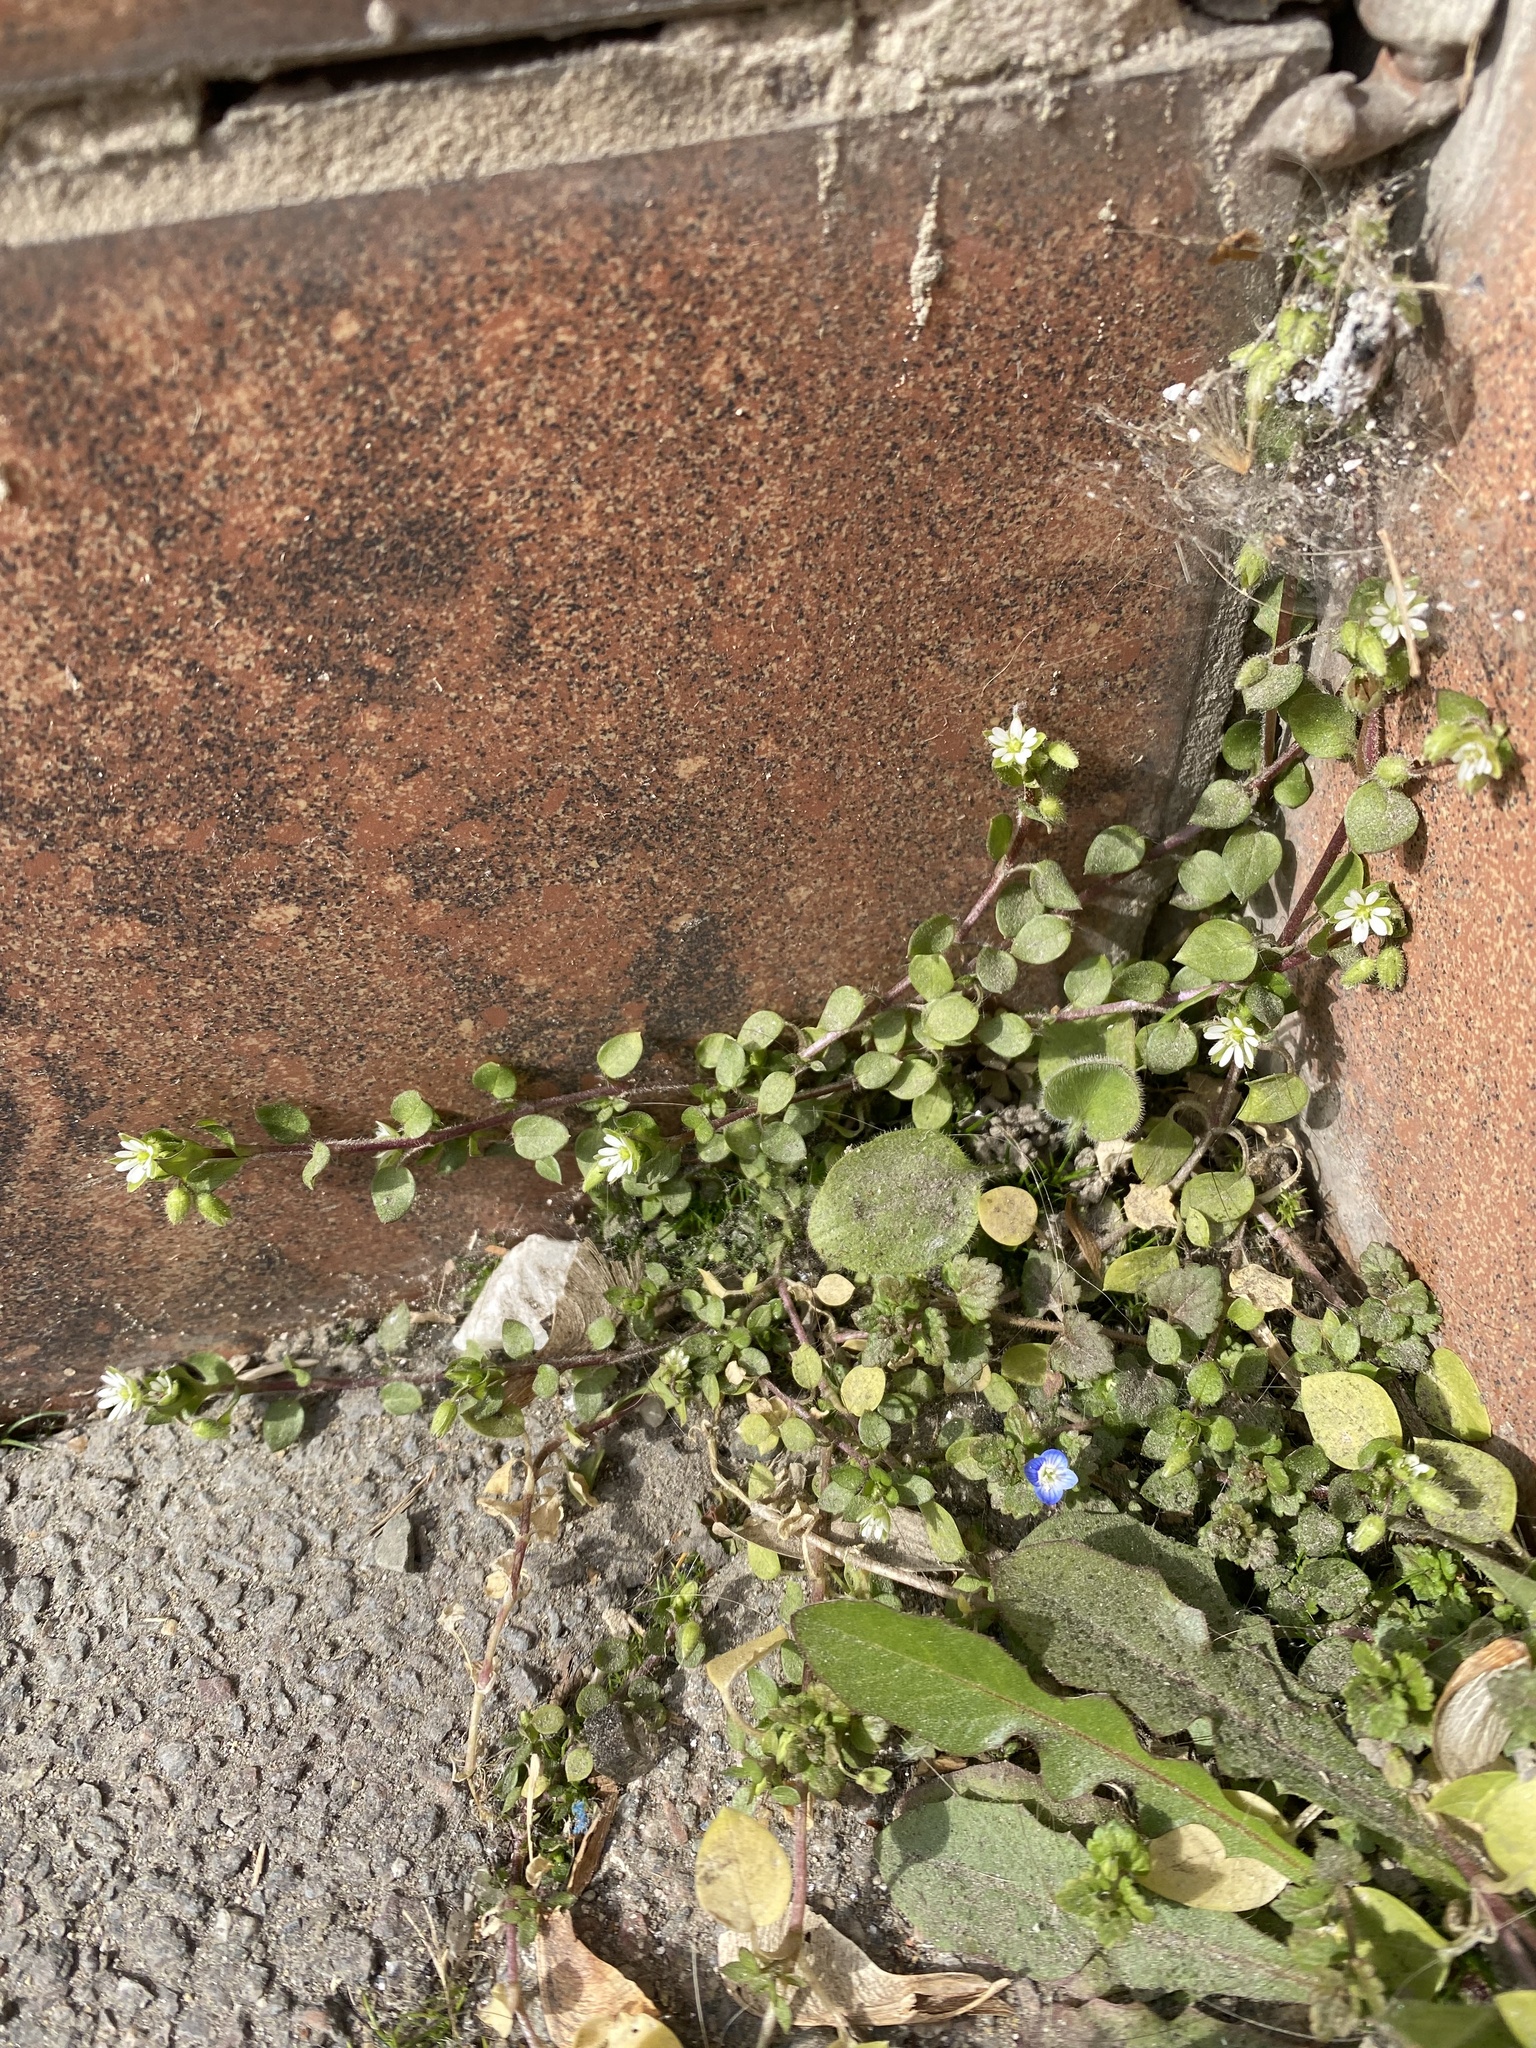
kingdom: Plantae
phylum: Tracheophyta
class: Magnoliopsida
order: Caryophyllales
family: Caryophyllaceae
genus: Stellaria
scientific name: Stellaria media
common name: Common chickweed
